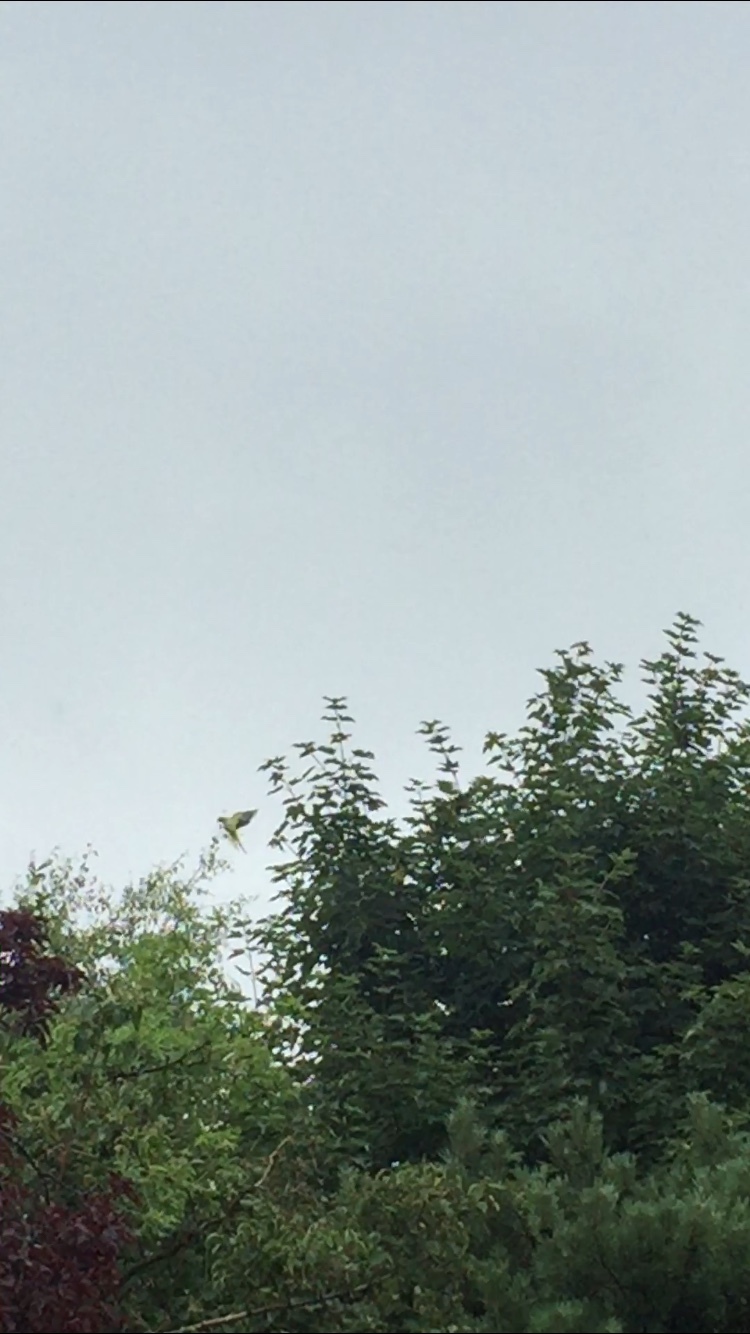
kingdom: Animalia
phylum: Chordata
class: Aves
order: Psittaciformes
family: Psittacidae
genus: Psittacula
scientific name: Psittacula krameri
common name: Rose-ringed parakeet
